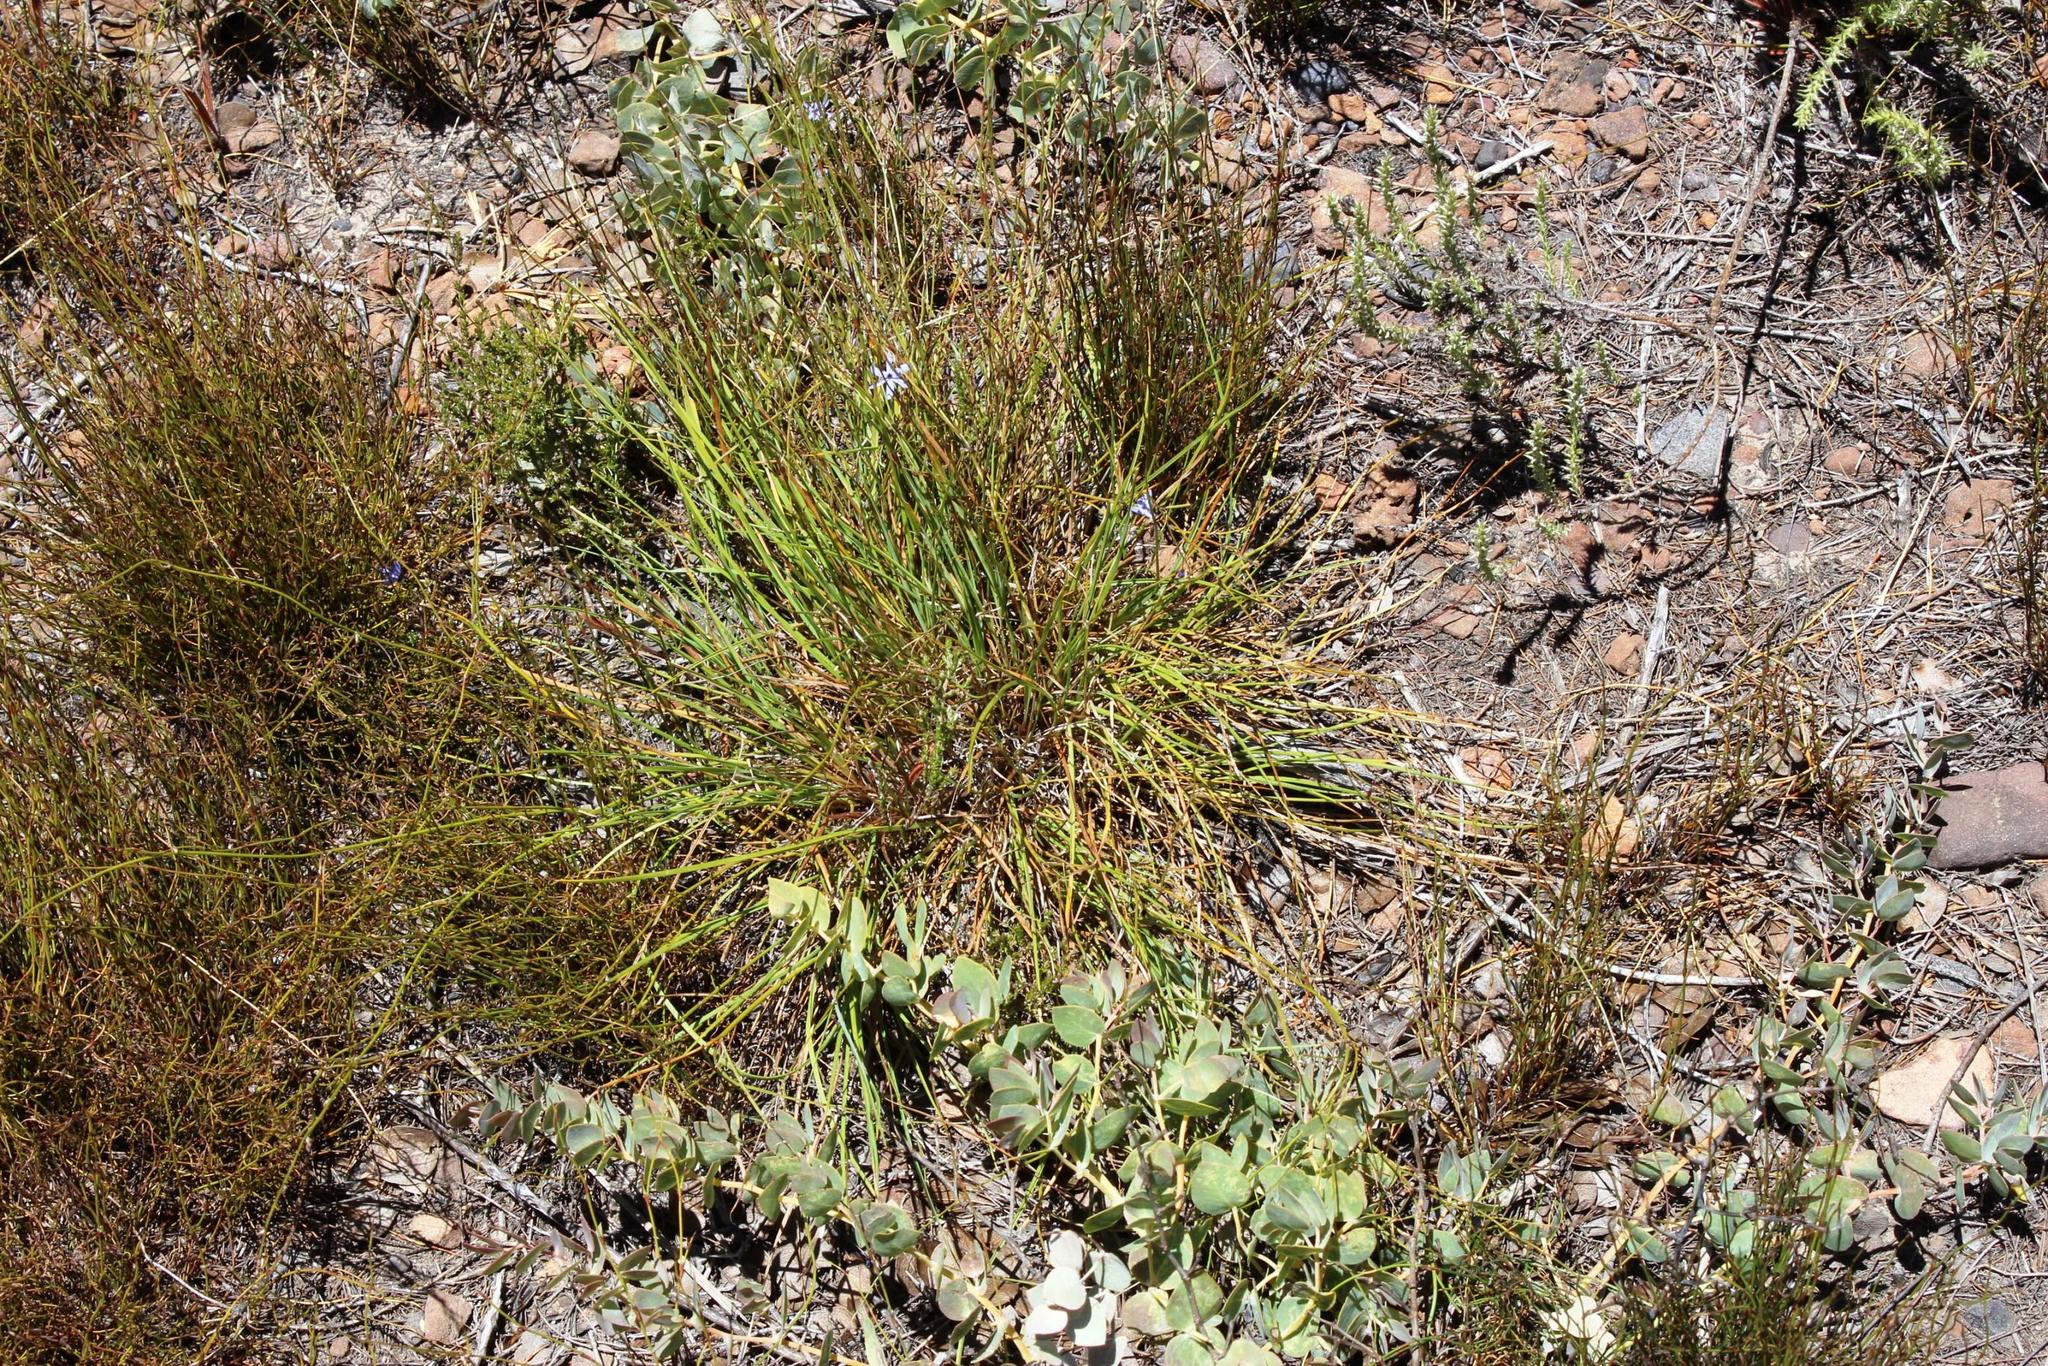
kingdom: Plantae
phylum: Tracheophyta
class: Liliopsida
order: Asparagales
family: Asphodelaceae
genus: Caesia
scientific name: Caesia contorta
